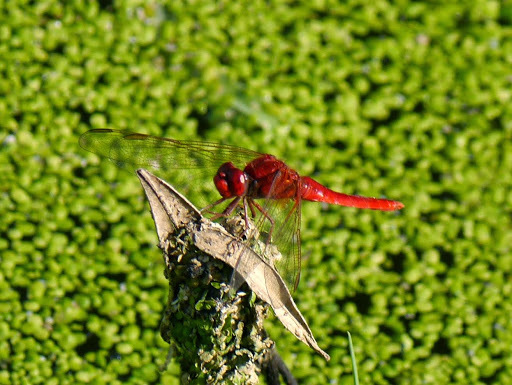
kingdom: Animalia
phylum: Arthropoda
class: Insecta
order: Odonata
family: Libellulidae
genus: Crocothemis
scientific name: Crocothemis erythraea
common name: Scarlet dragonfly
